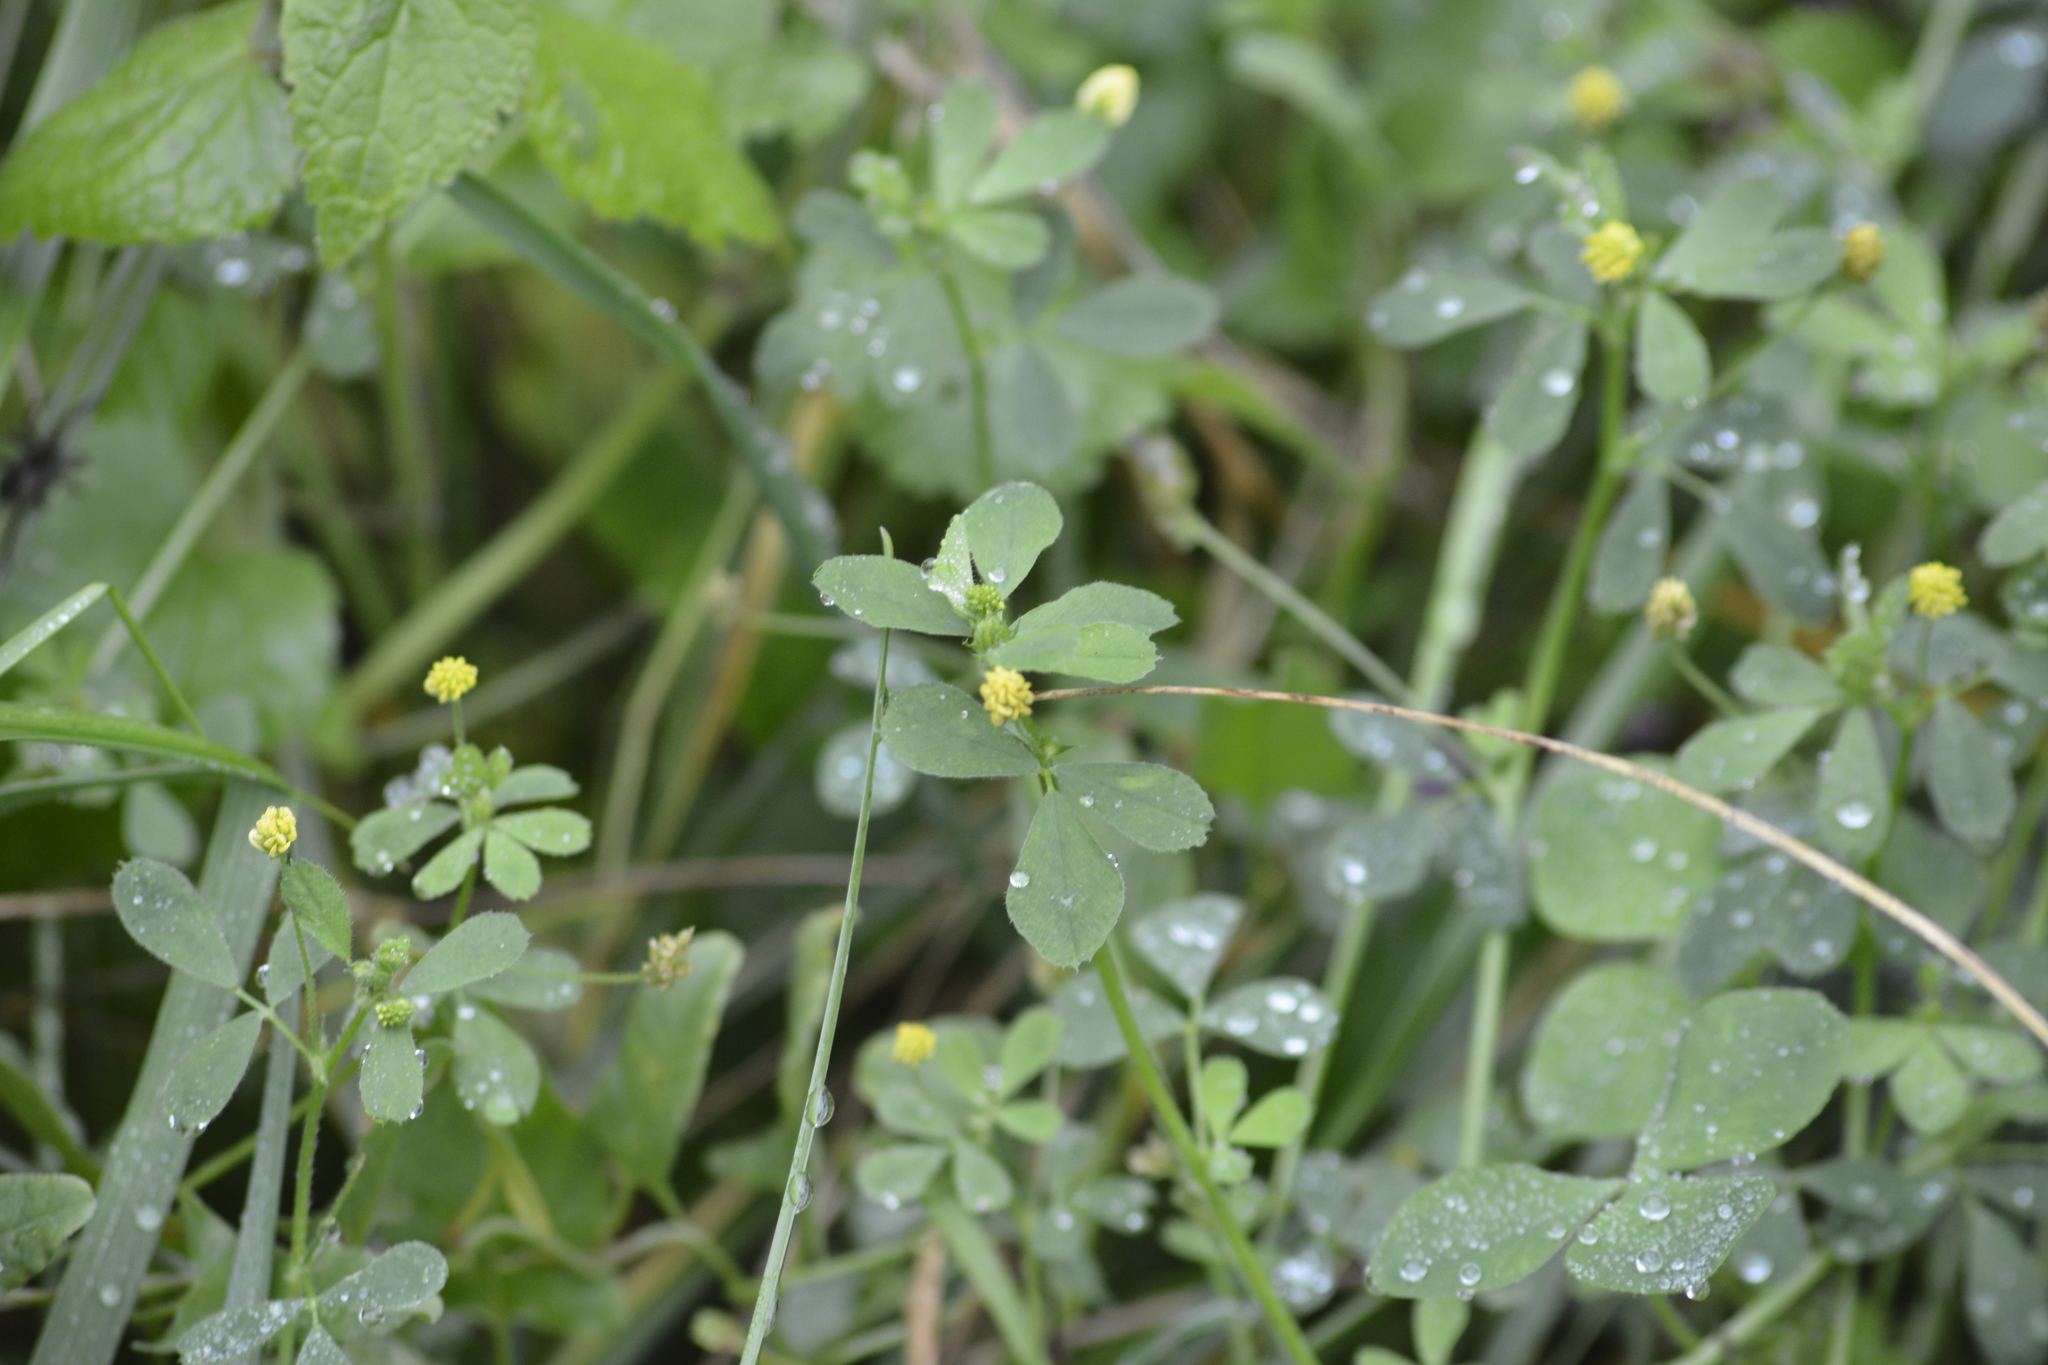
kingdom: Plantae
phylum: Tracheophyta
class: Magnoliopsida
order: Fabales
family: Fabaceae
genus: Medicago
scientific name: Medicago lupulina
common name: Black medick
